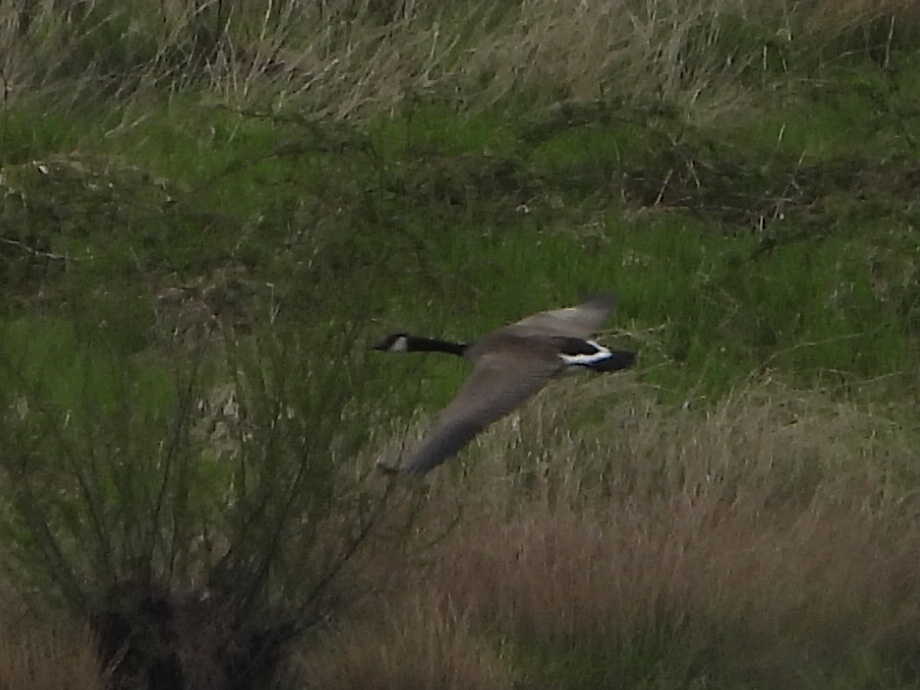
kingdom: Animalia
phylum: Chordata
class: Aves
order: Anseriformes
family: Anatidae
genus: Branta
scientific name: Branta canadensis
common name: Canada goose
